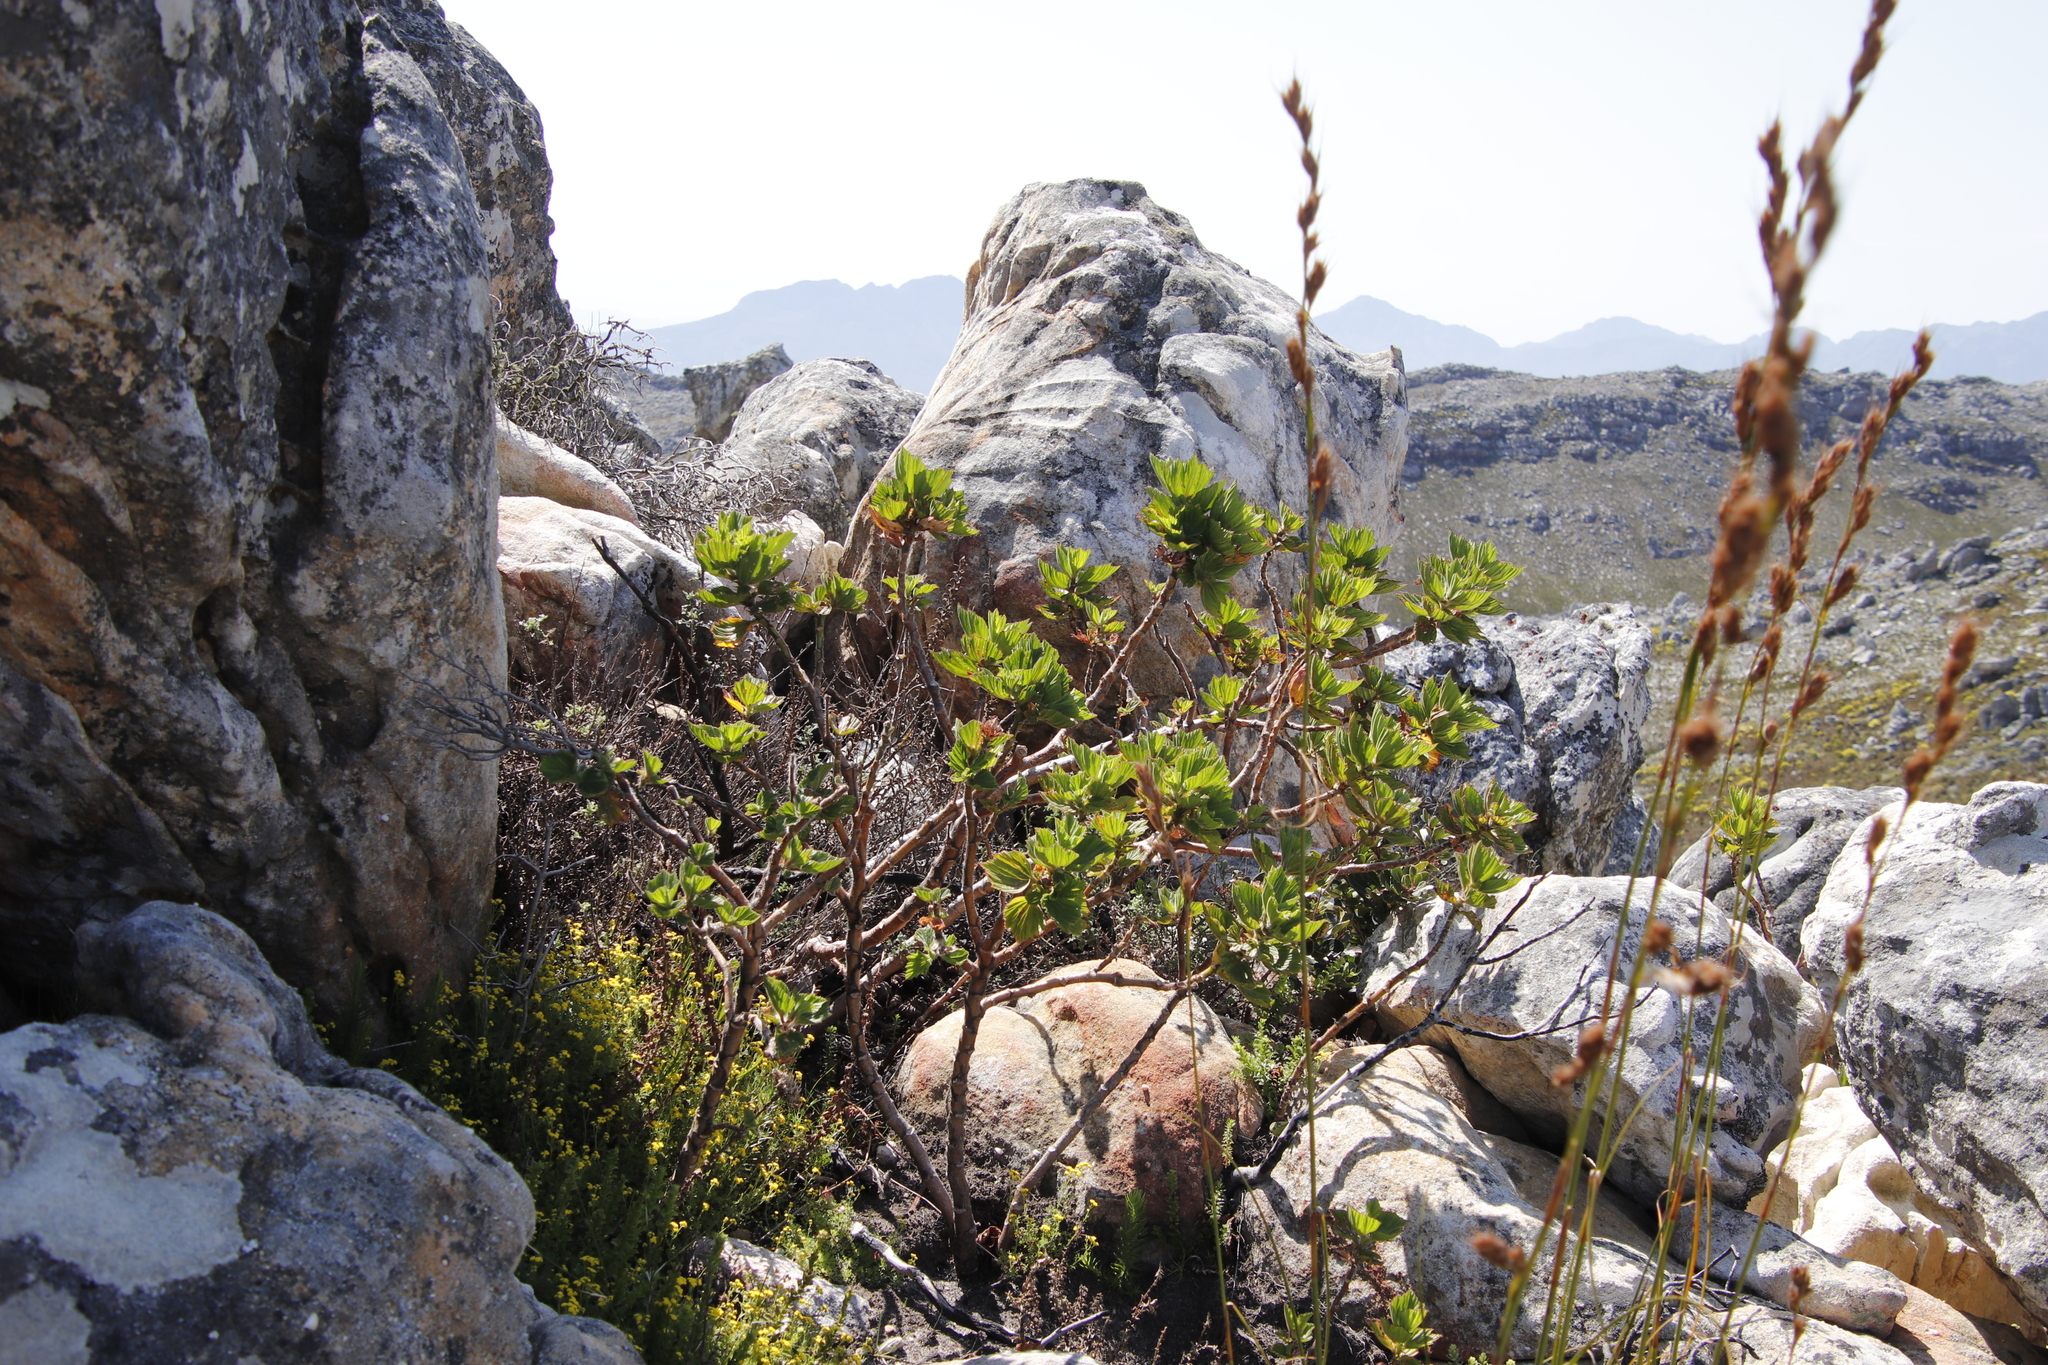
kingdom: Plantae
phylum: Tracheophyta
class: Magnoliopsida
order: Geraniales
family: Geraniaceae
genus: Pelargonium
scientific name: Pelargonium cucullatum
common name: Tree pelargonium
